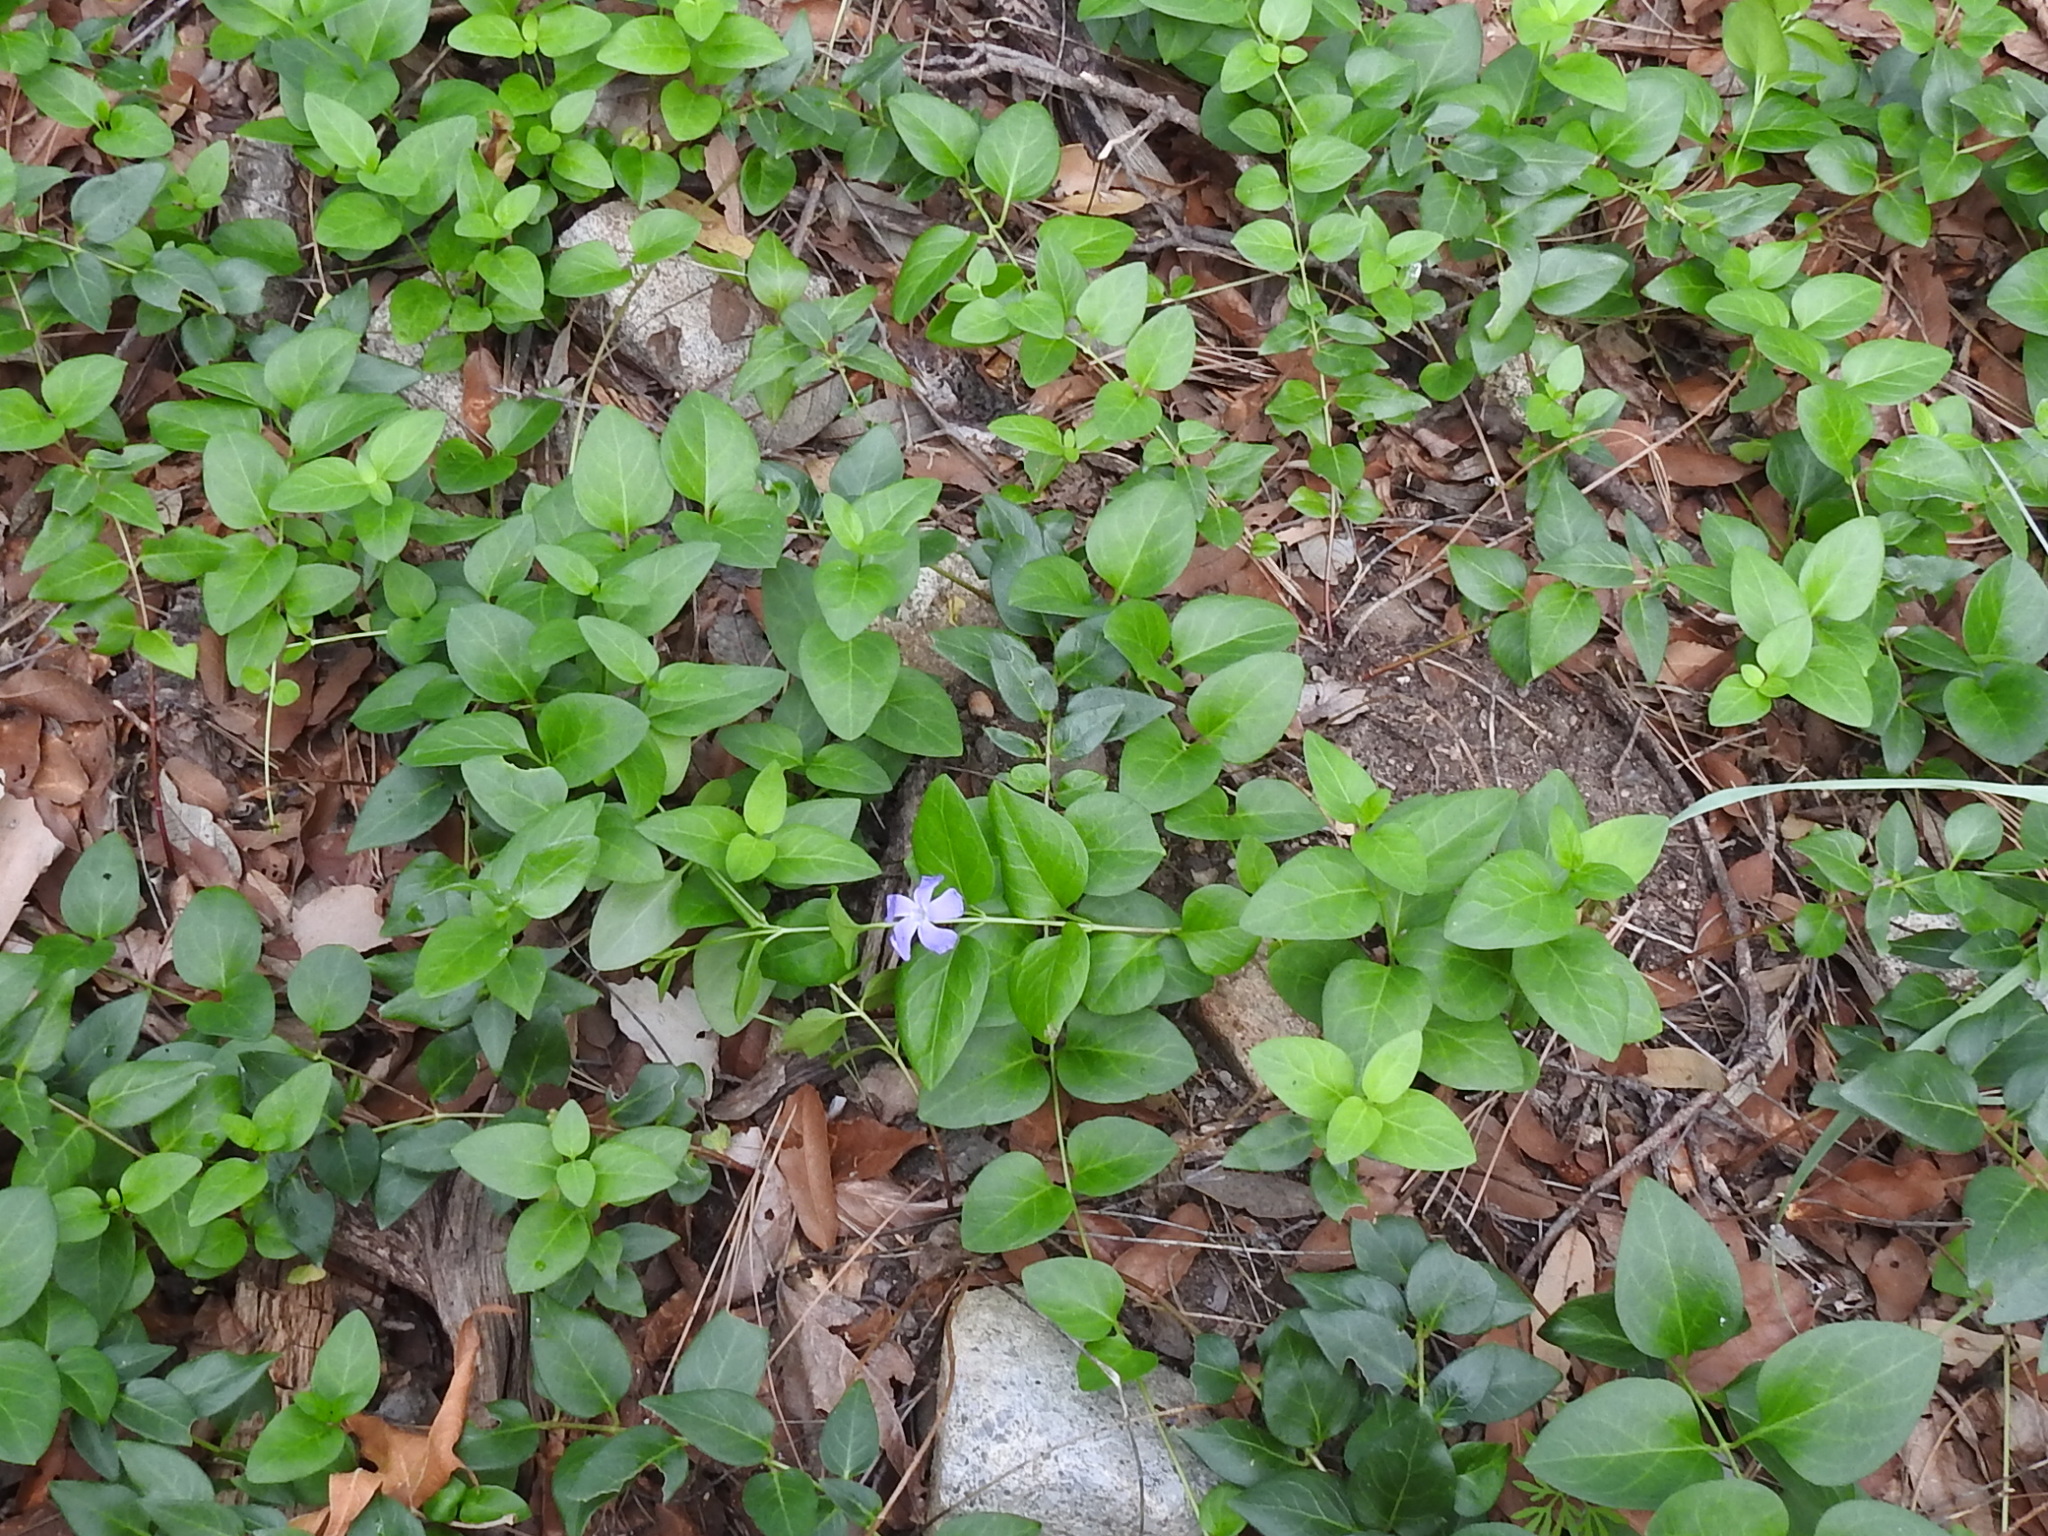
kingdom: Plantae
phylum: Tracheophyta
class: Magnoliopsida
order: Gentianales
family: Apocynaceae
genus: Vinca
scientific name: Vinca major
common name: Greater periwinkle
